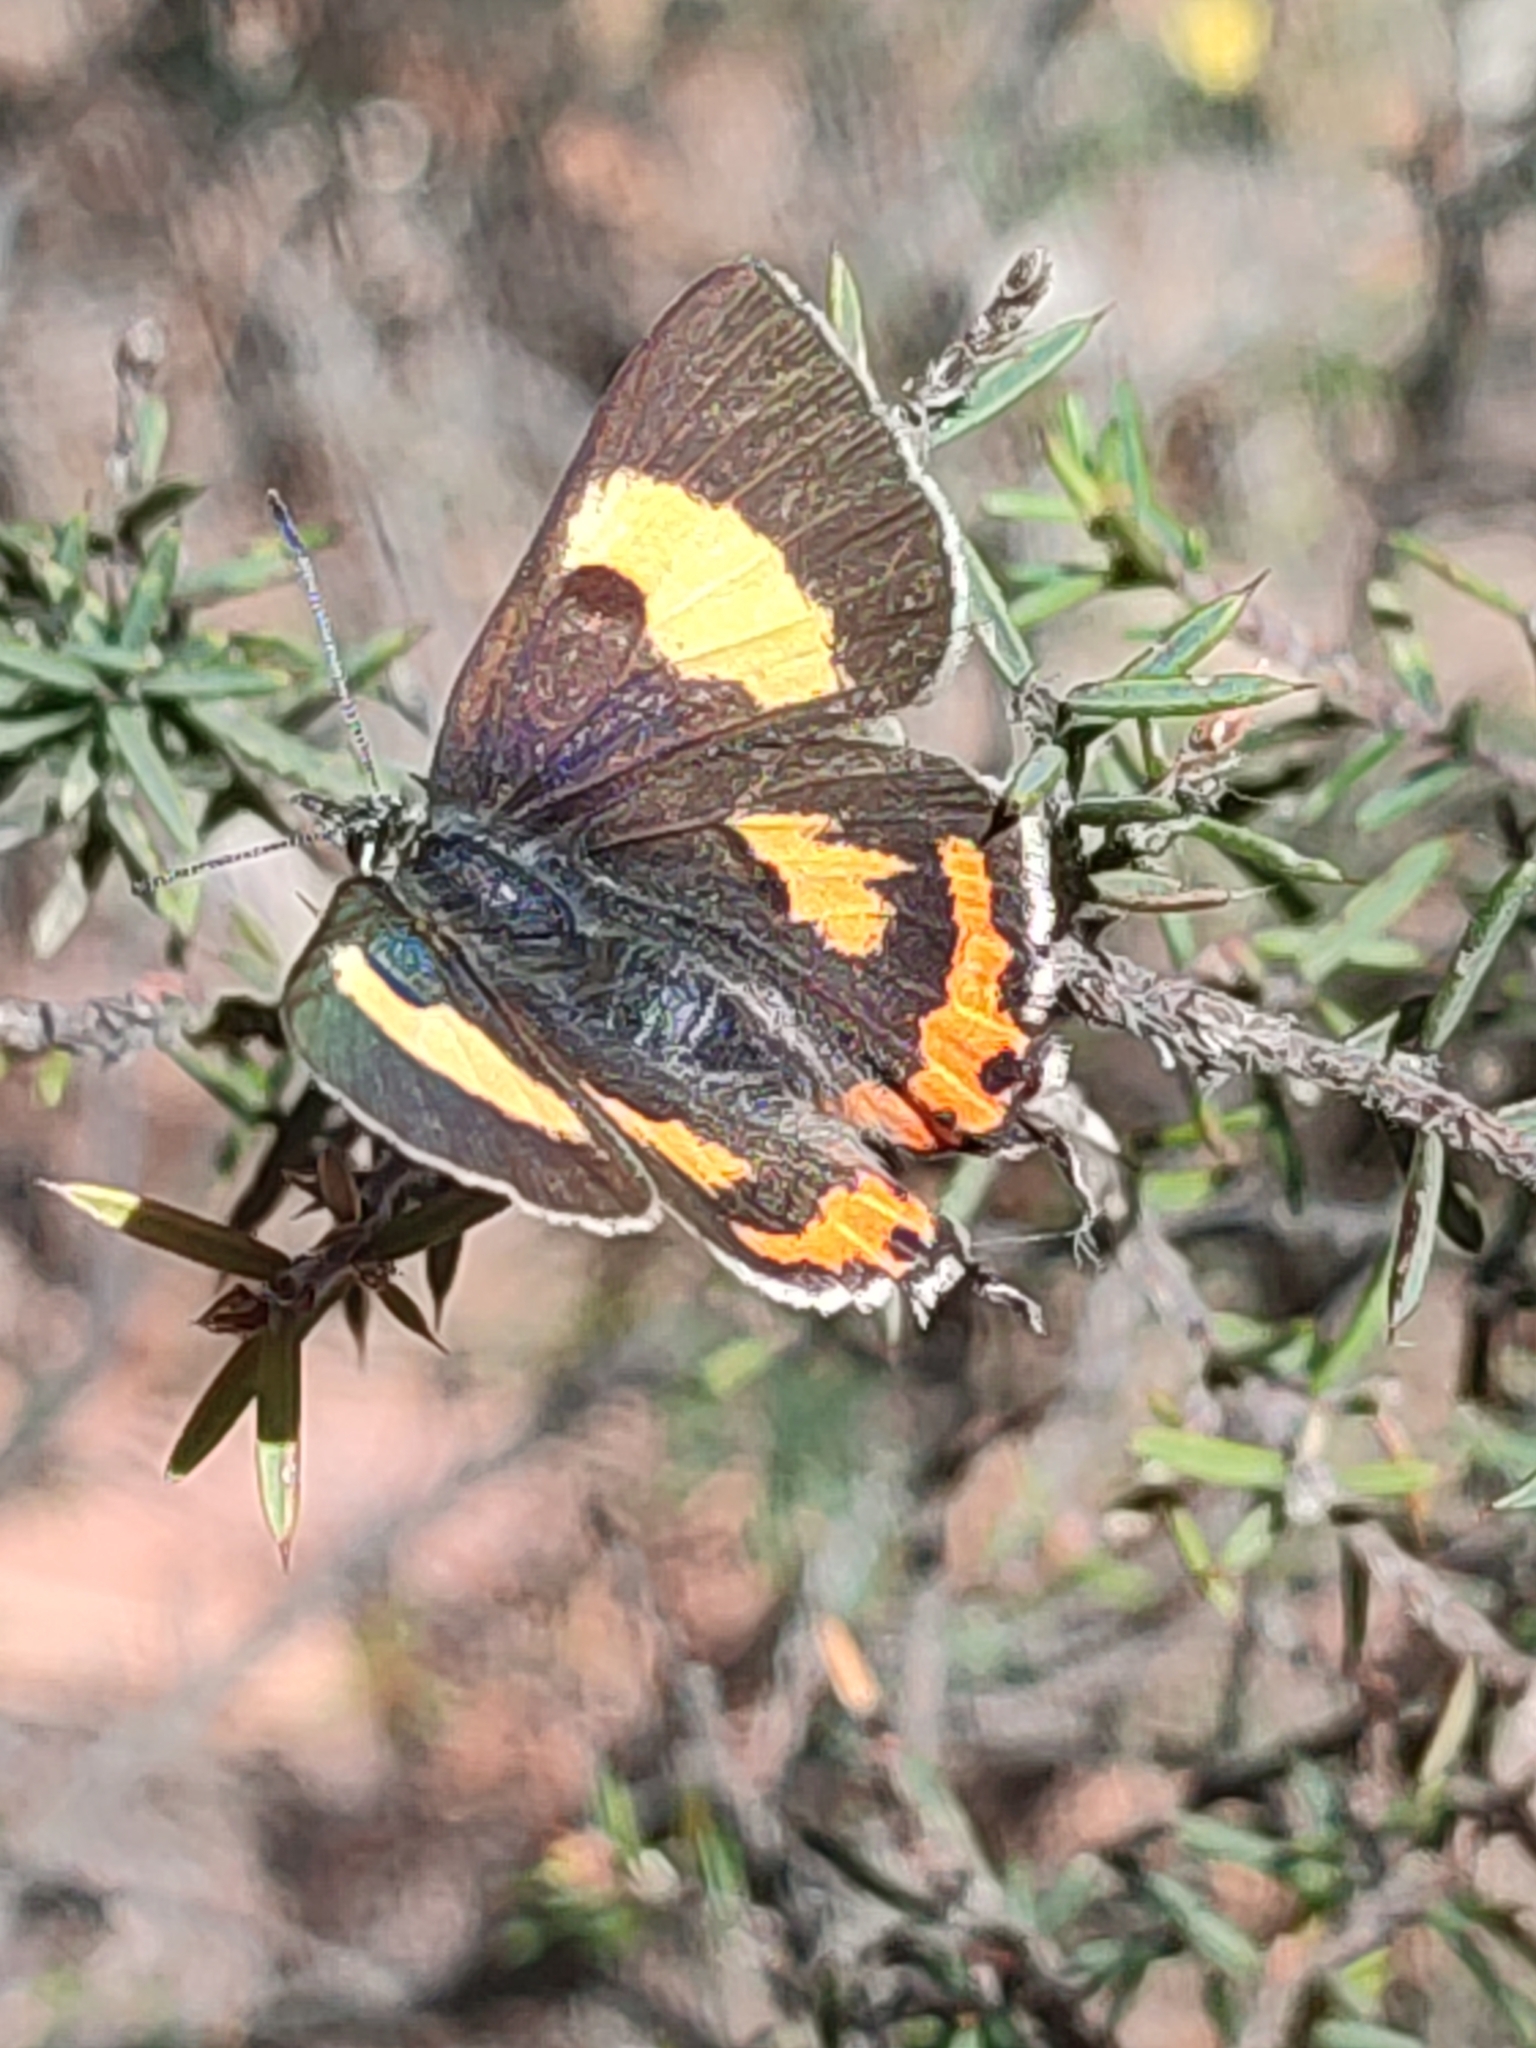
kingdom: Animalia
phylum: Arthropoda
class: Insecta
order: Lepidoptera
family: Lycaenidae
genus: Pseudalmenus
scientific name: Pseudalmenus chlorinda
